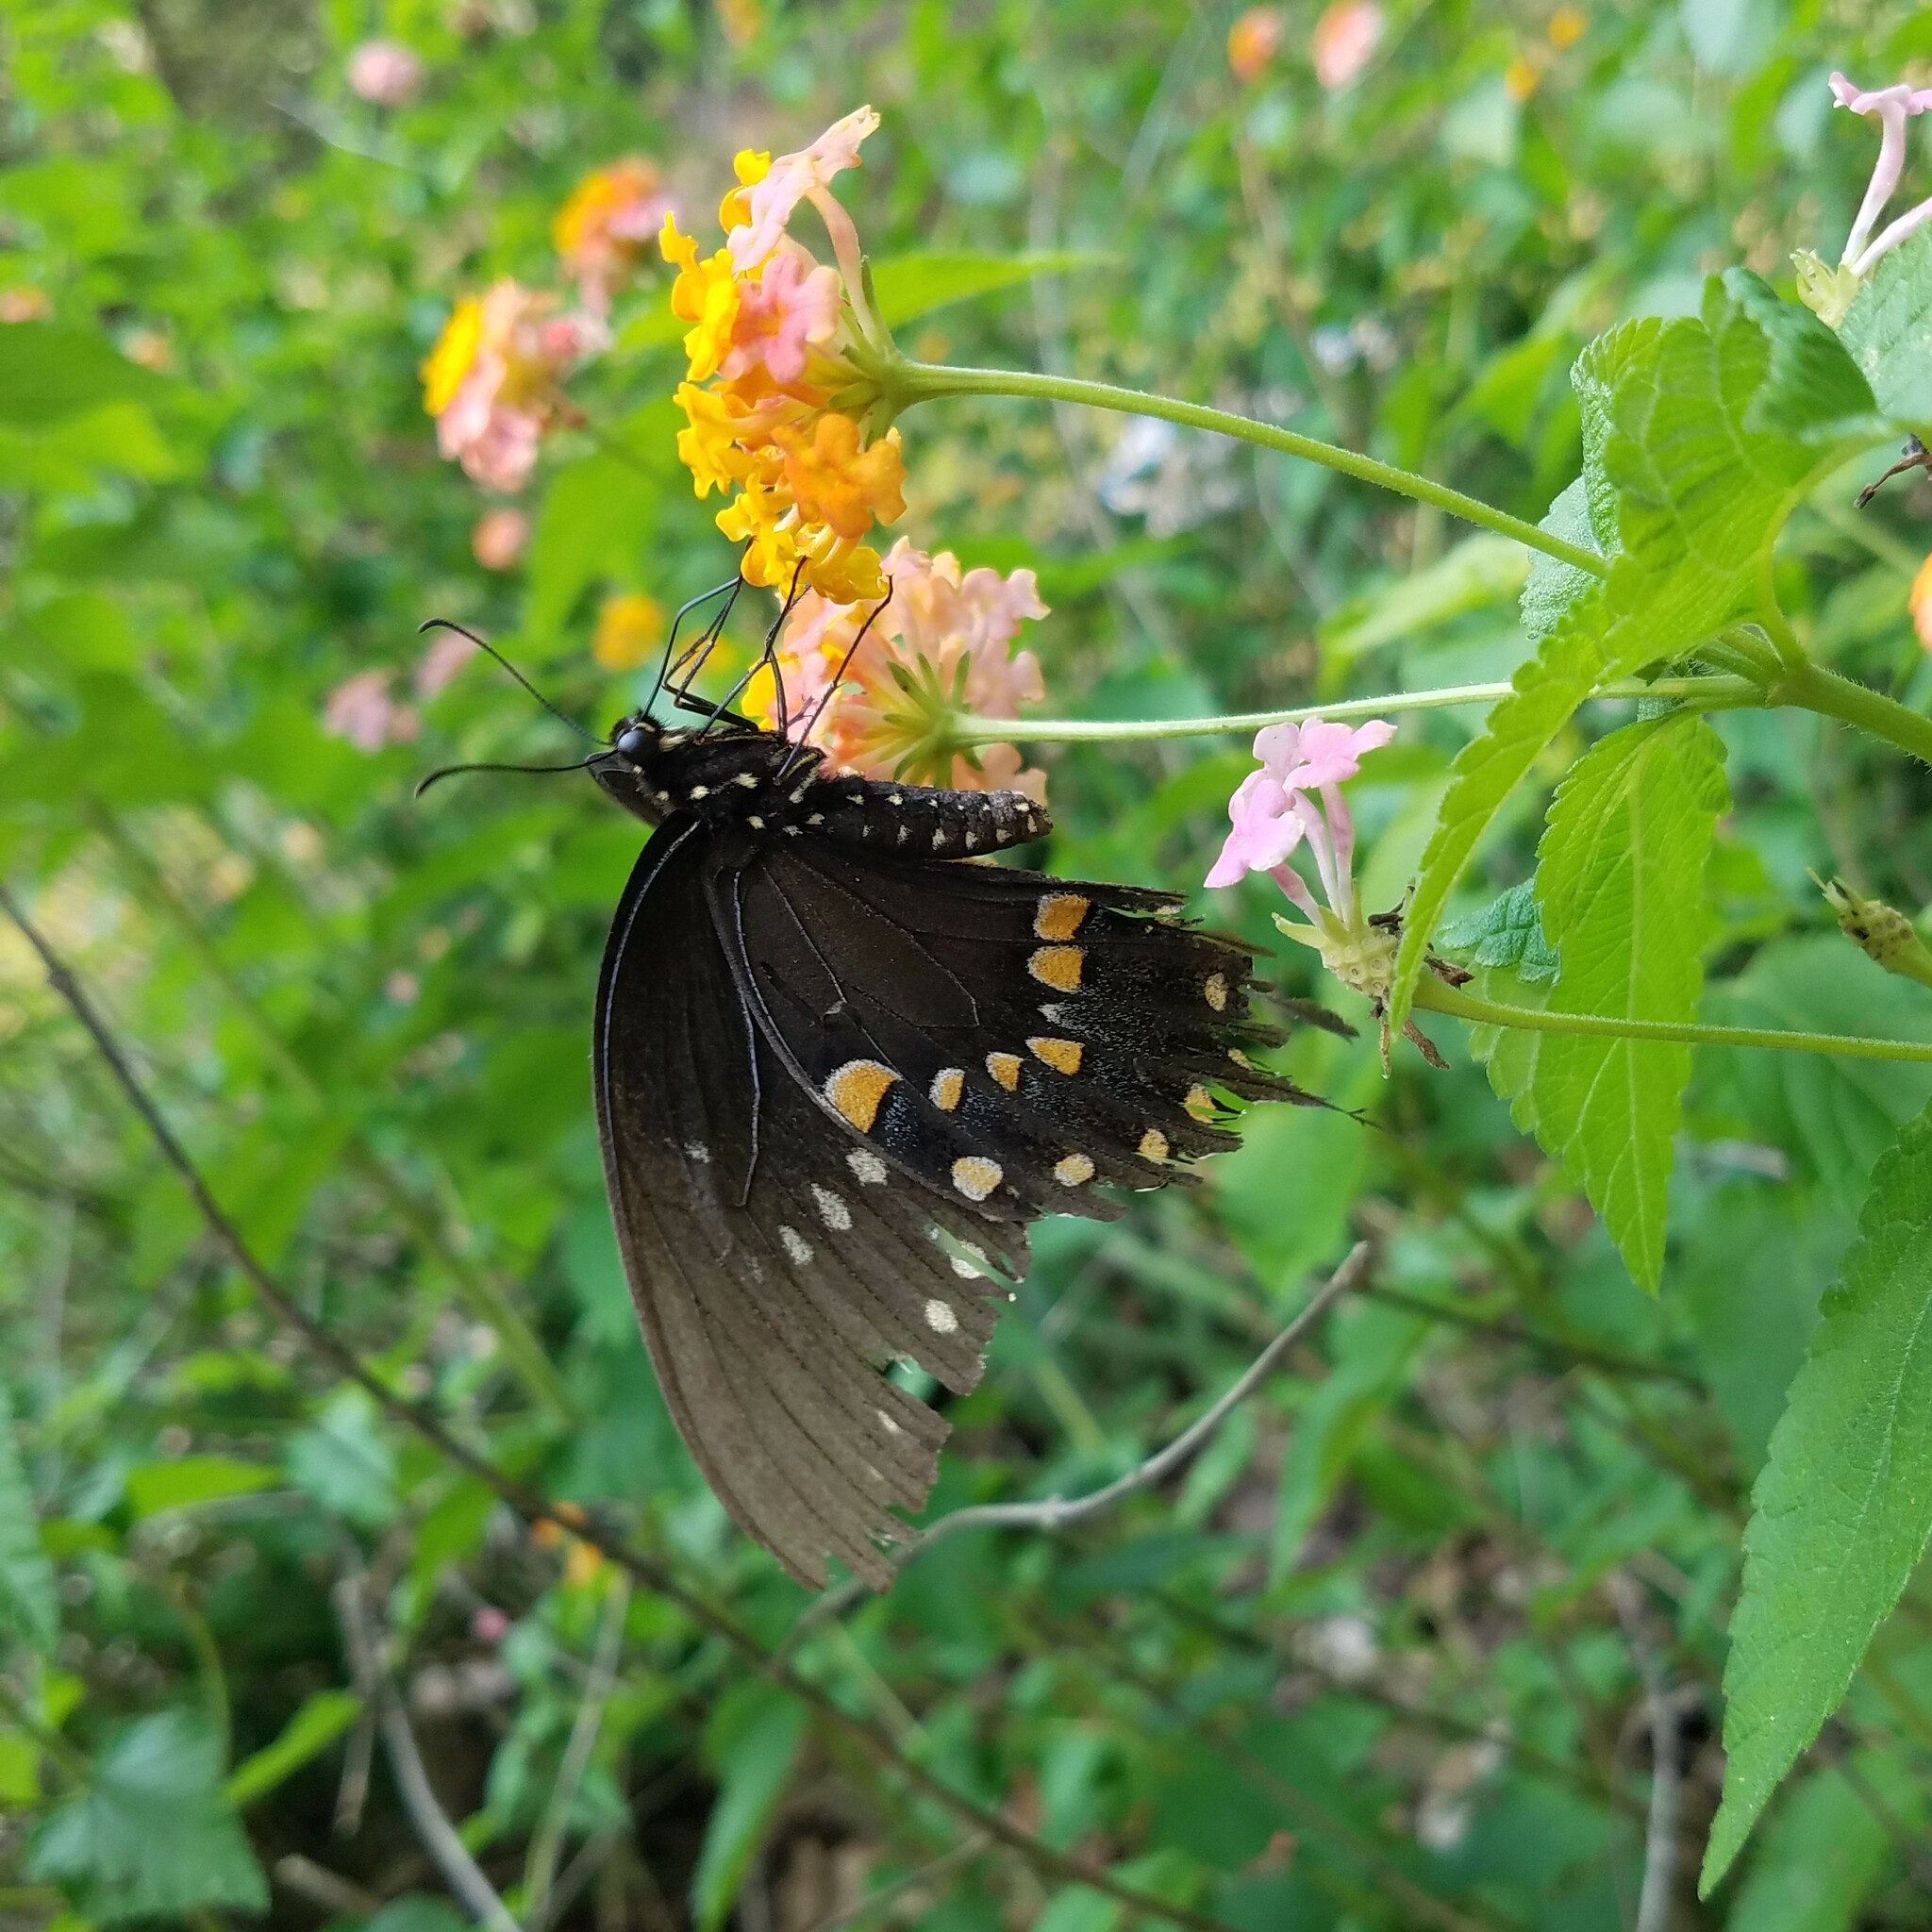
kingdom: Animalia
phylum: Arthropoda
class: Insecta
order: Lepidoptera
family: Papilionidae
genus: Papilio
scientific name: Papilio troilus
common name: Spicebush swallowtail
